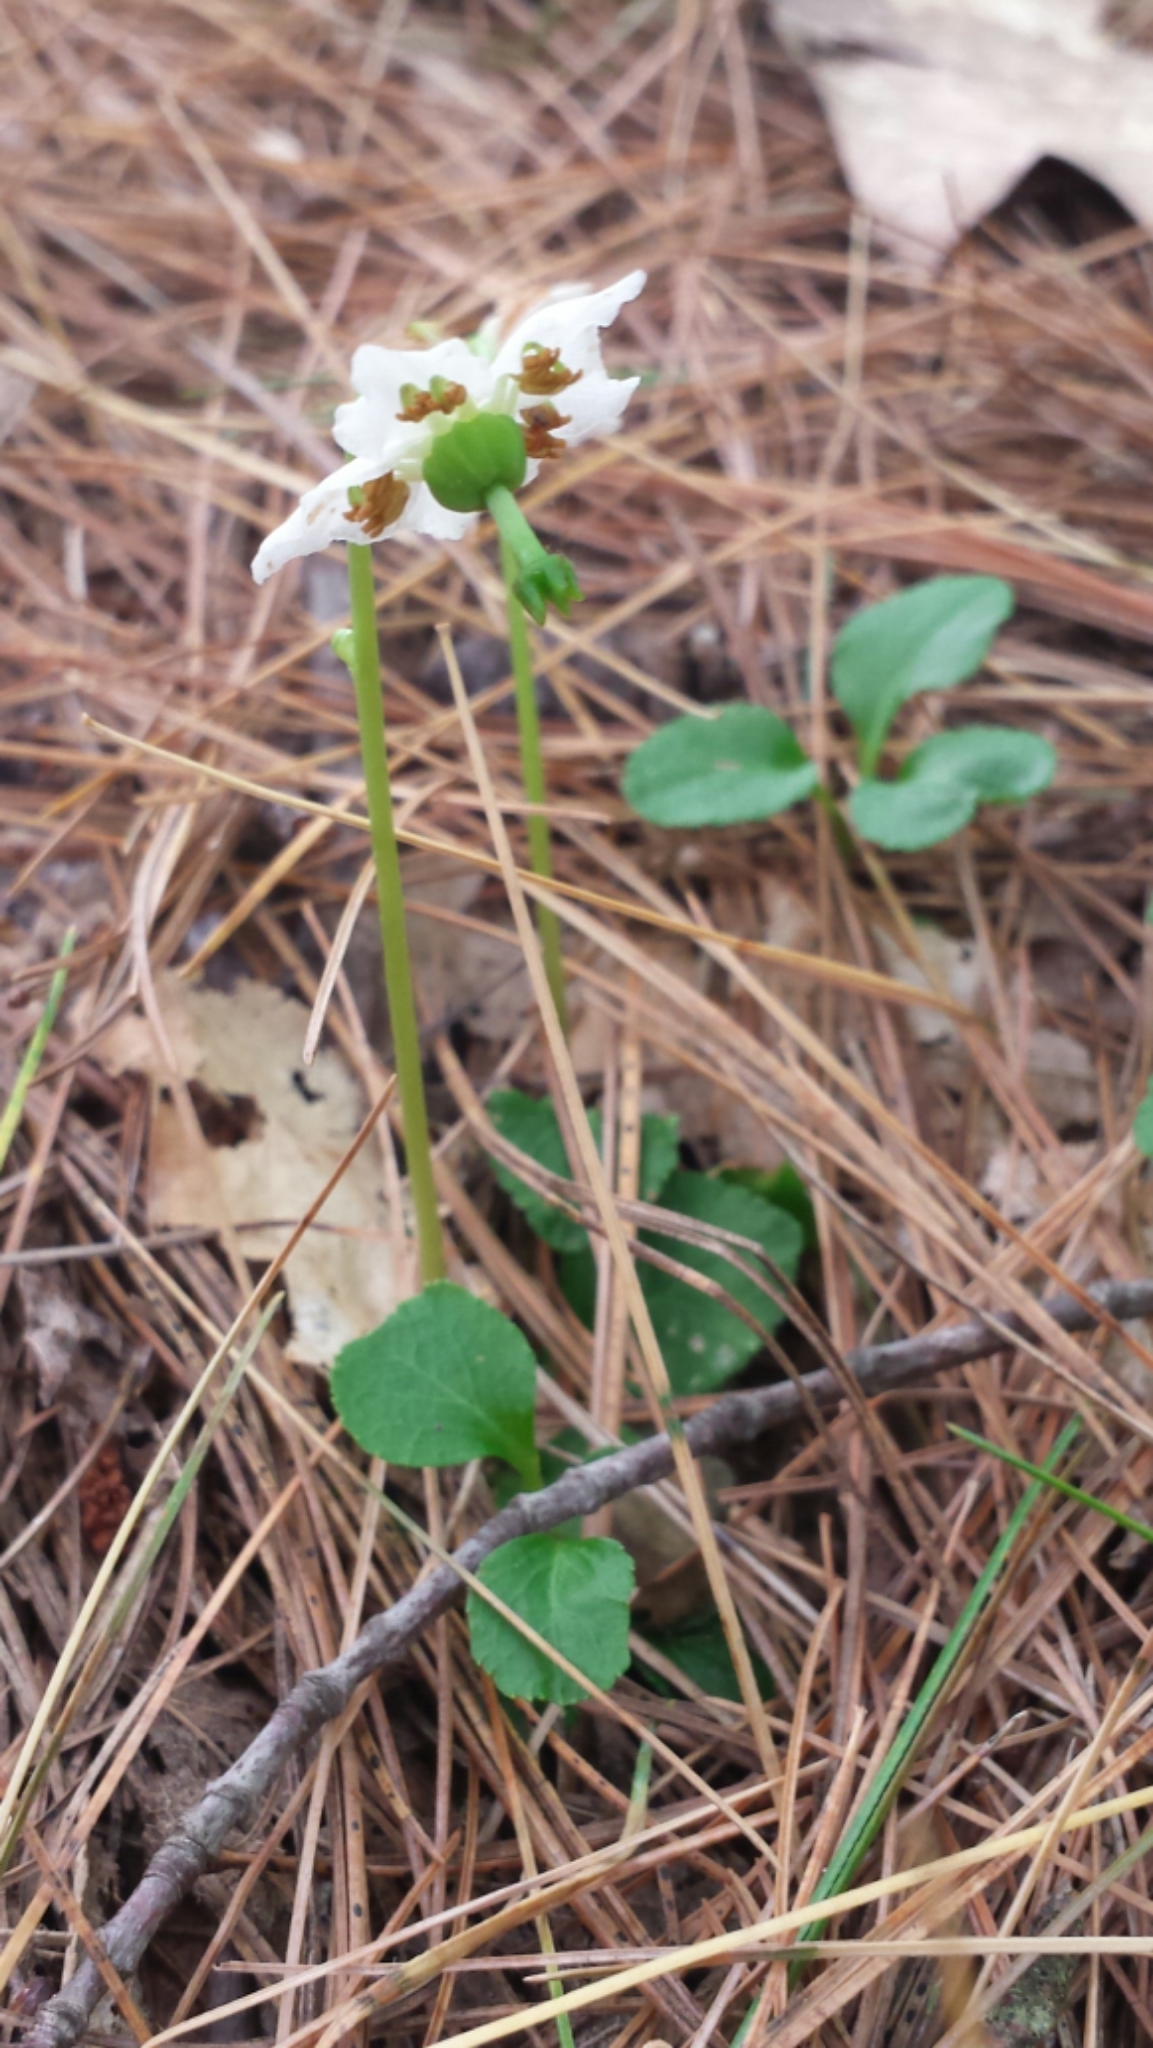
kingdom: Plantae
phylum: Tracheophyta
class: Magnoliopsida
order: Ericales
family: Ericaceae
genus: Moneses
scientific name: Moneses uniflora
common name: One-flowered wintergreen
